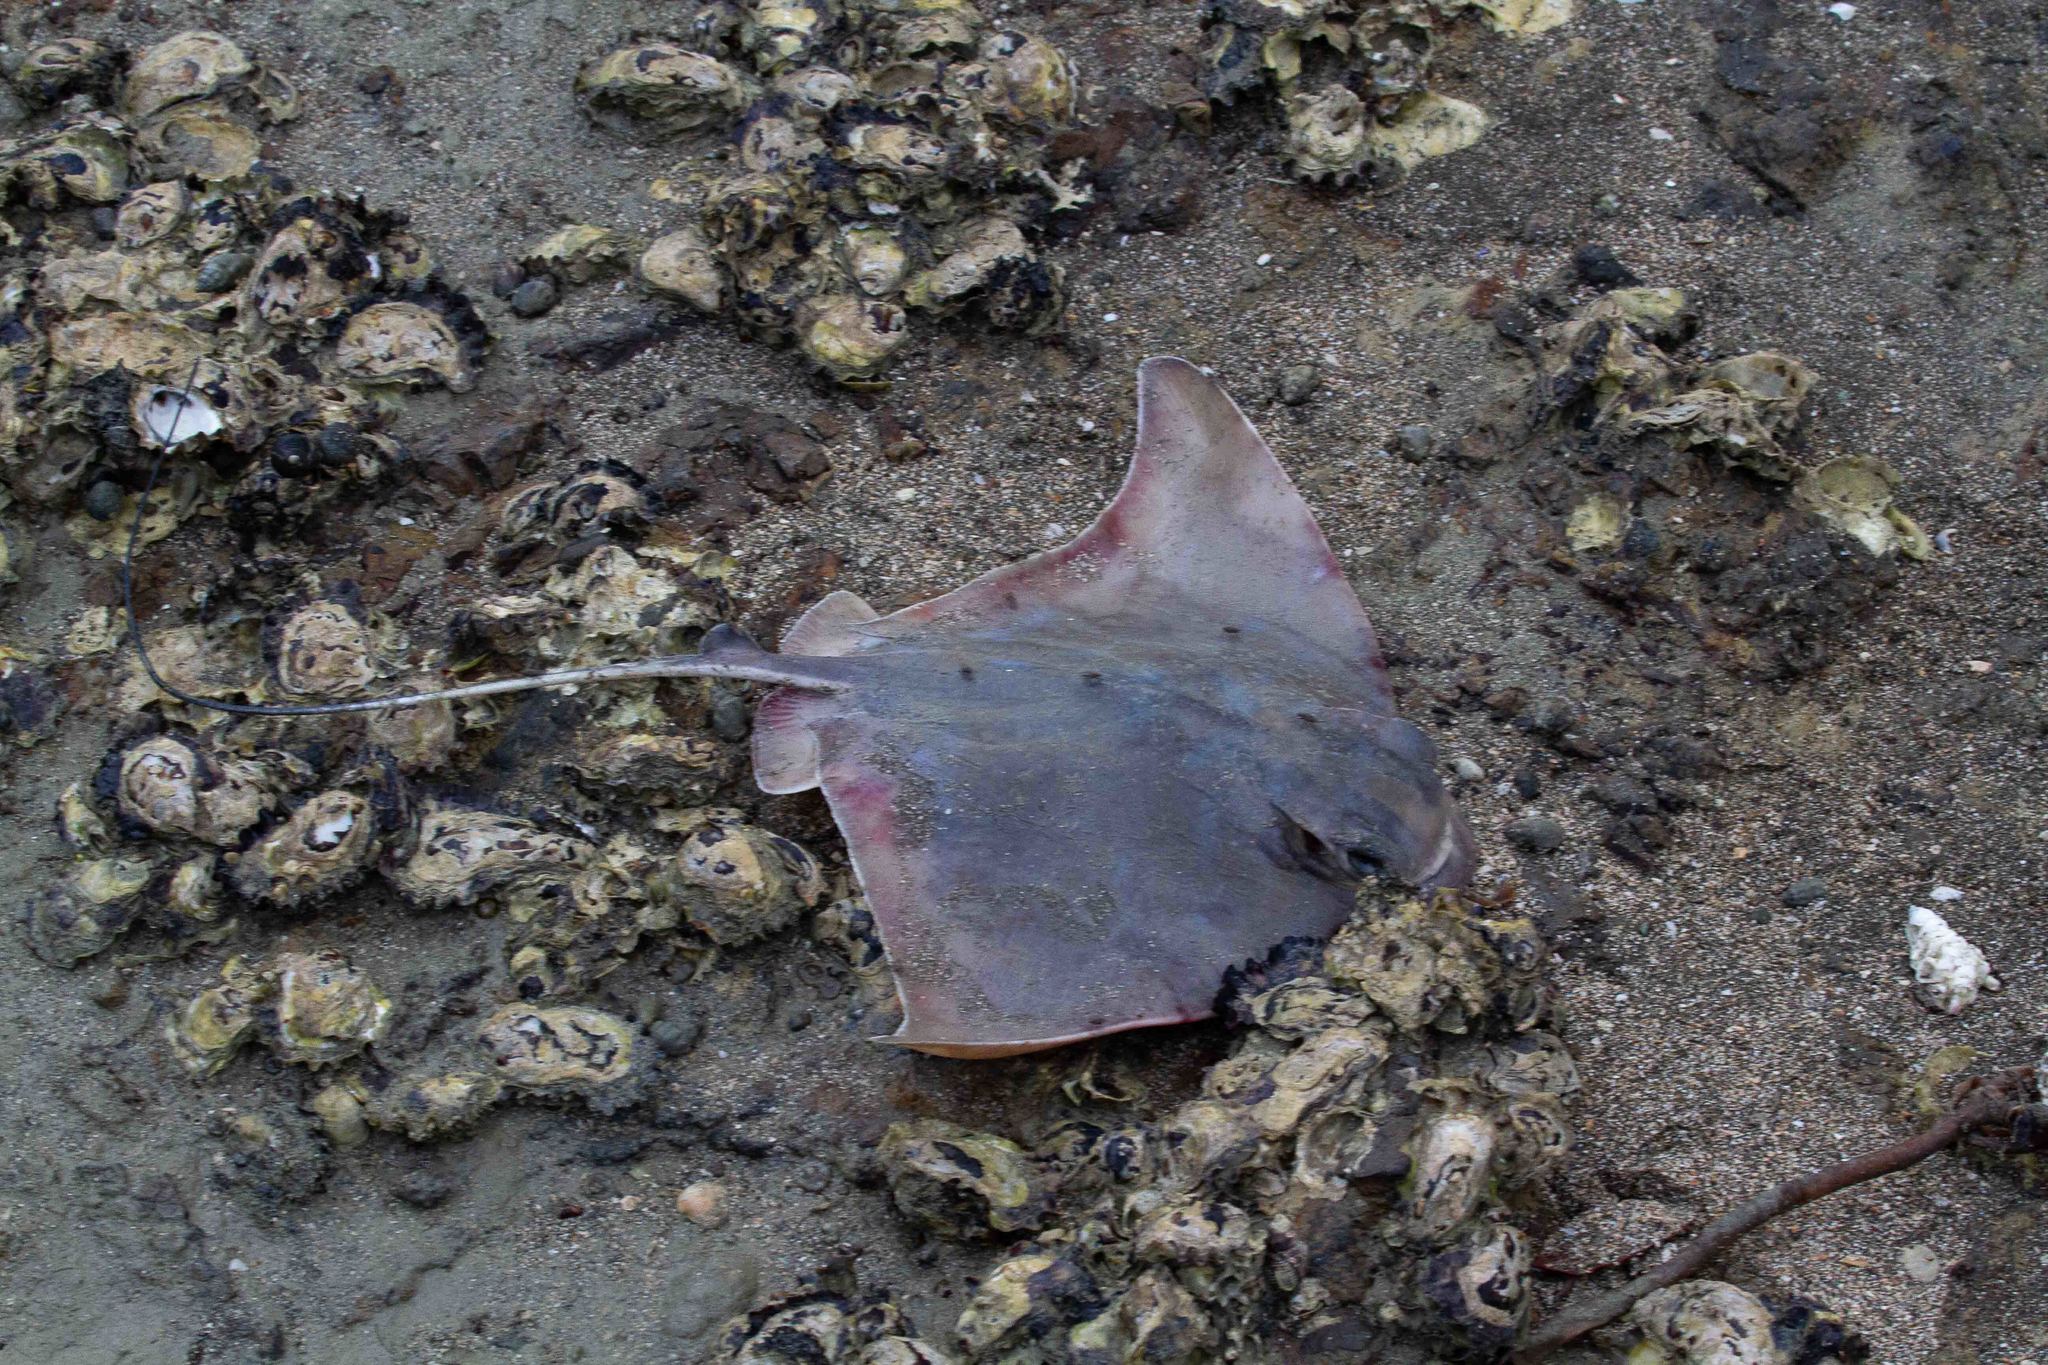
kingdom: Animalia
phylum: Chordata
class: Elasmobranchii
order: Myliobatiformes
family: Myliobatidae
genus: Myliobatis
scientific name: Myliobatis tenuicaudatus
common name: Eagle ray
